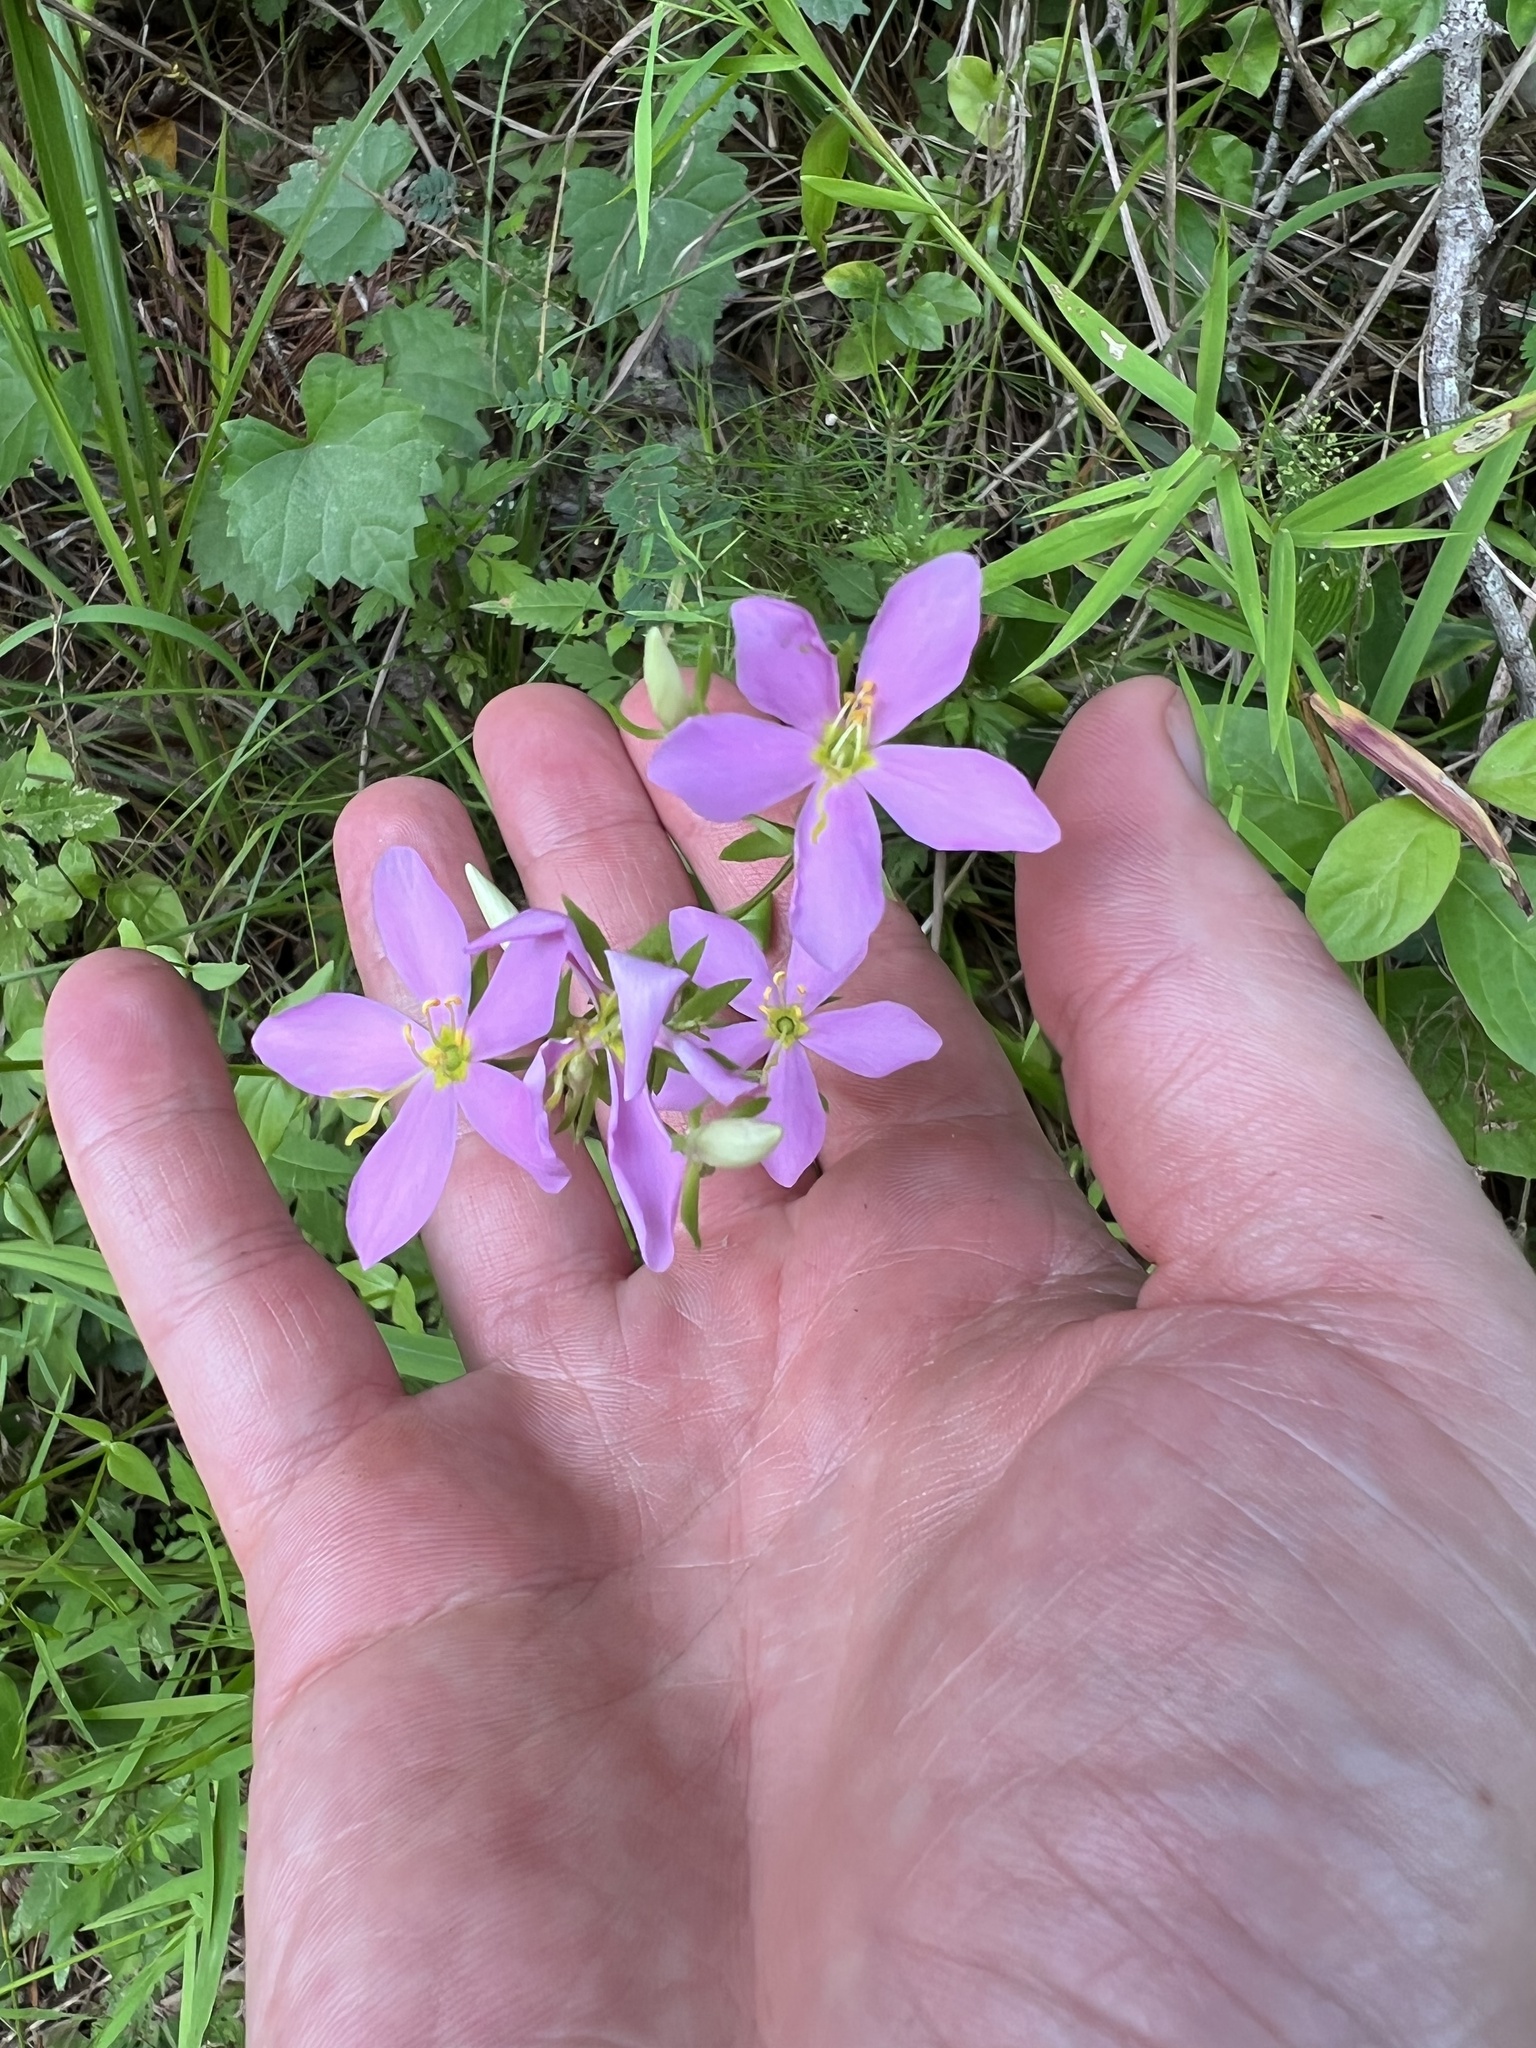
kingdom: Plantae
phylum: Tracheophyta
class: Magnoliopsida
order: Gentianales
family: Gentianaceae
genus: Sabatia
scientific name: Sabatia angularis
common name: Rose-pink
